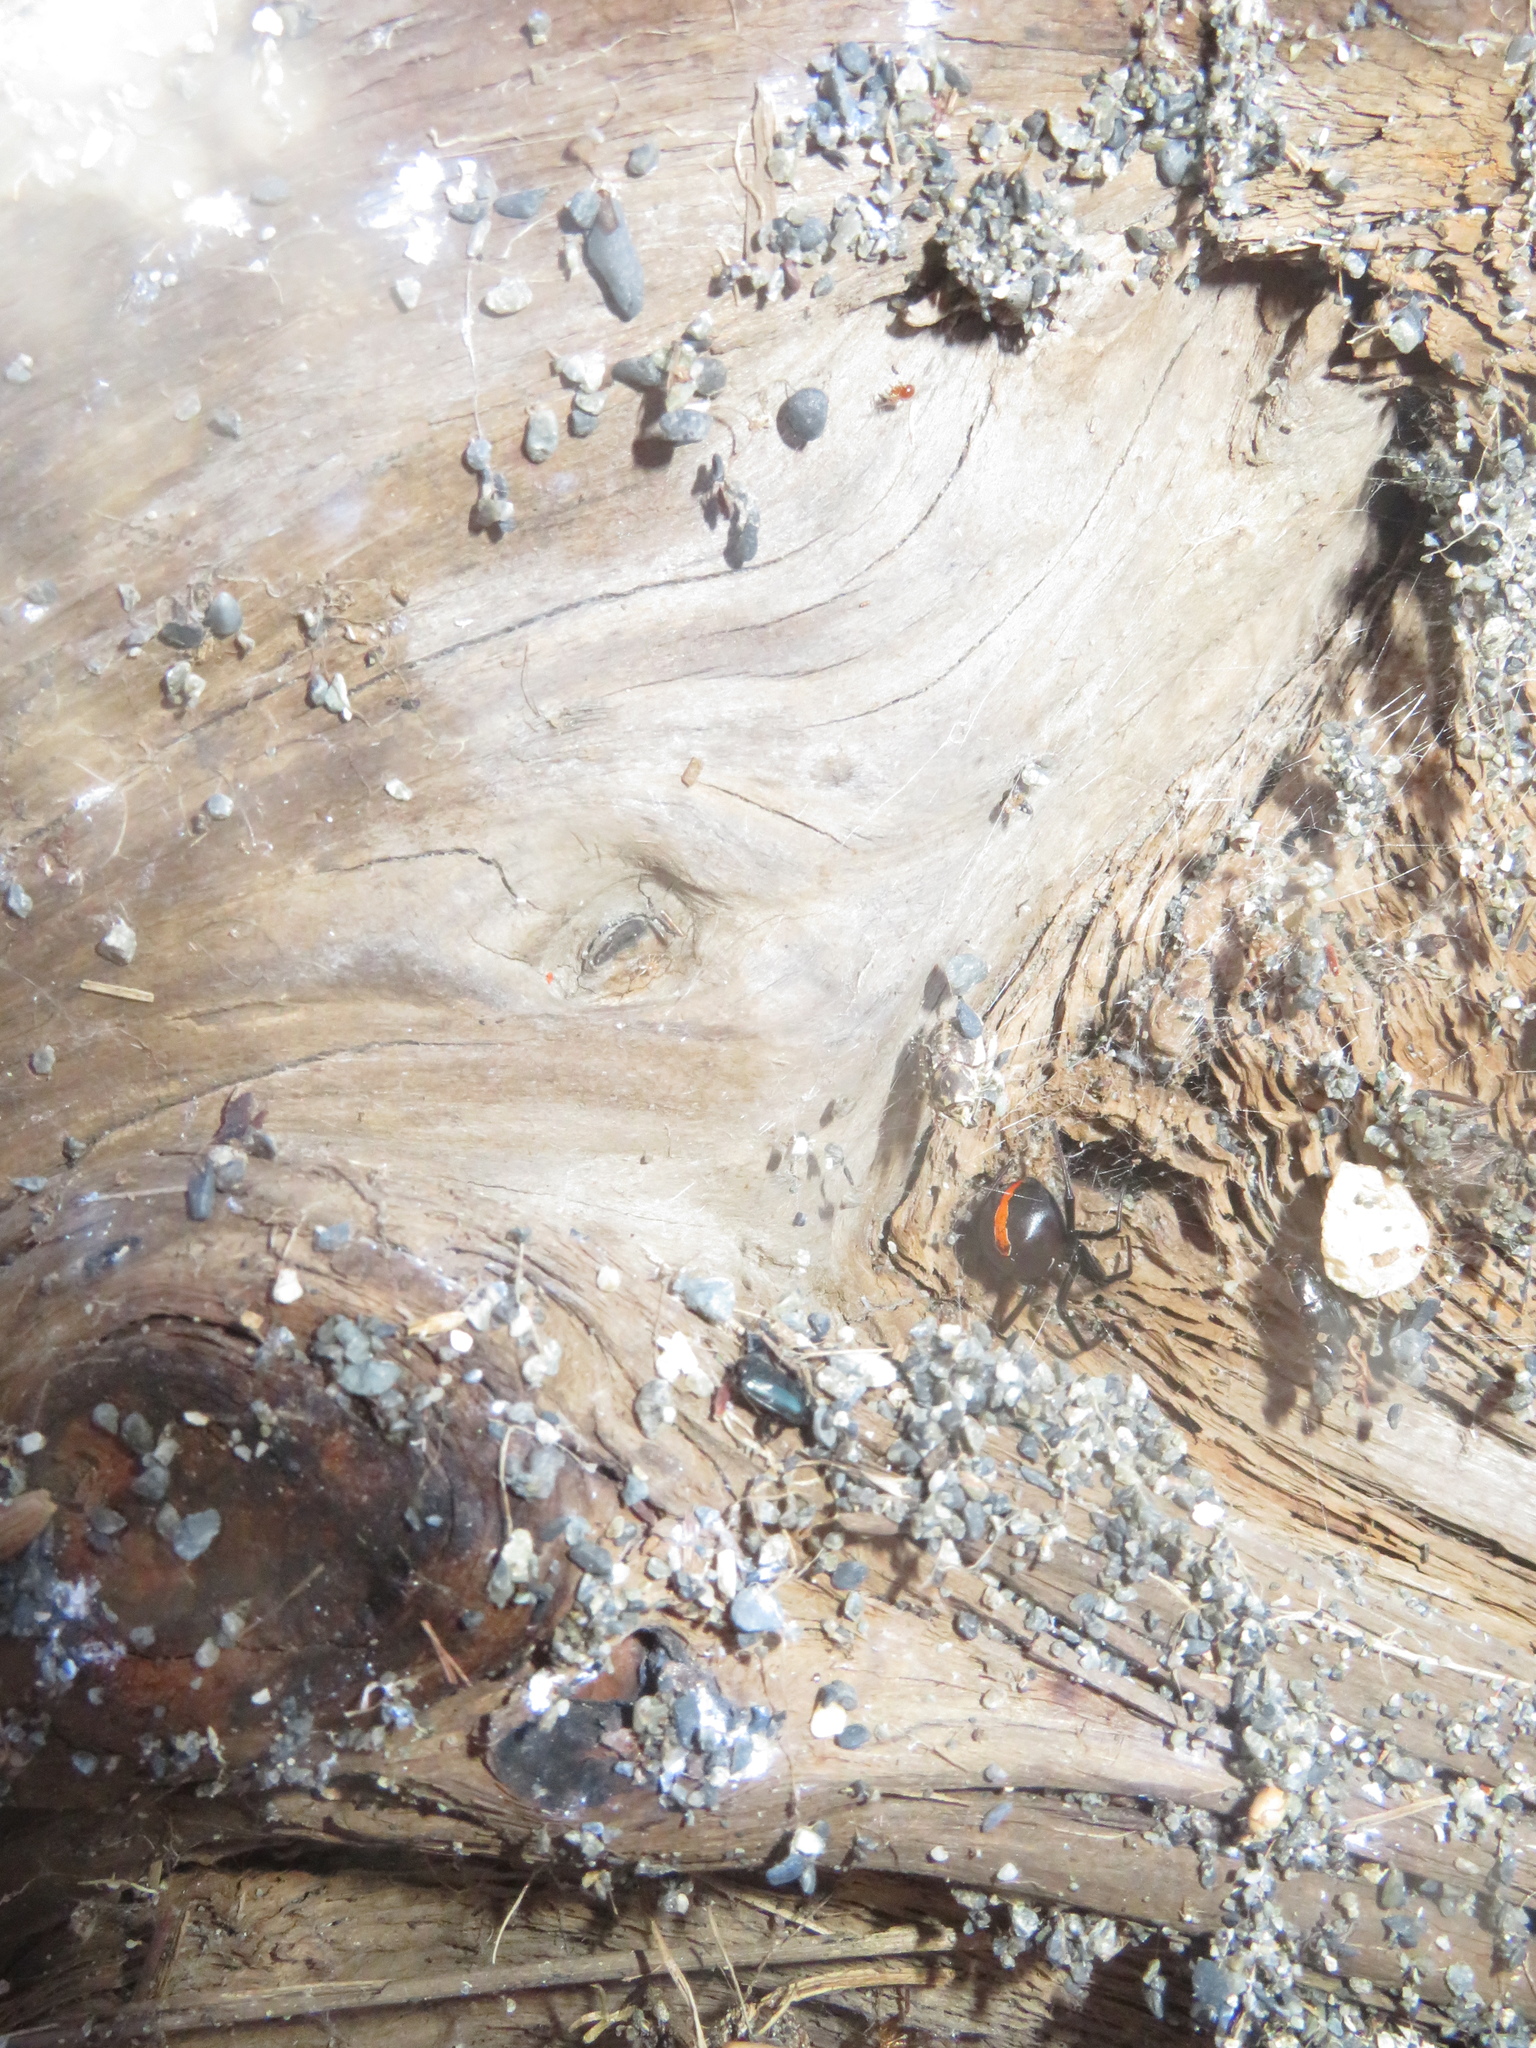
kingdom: Animalia
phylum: Arthropoda
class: Arachnida
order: Araneae
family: Theridiidae
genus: Latrodectus
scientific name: Latrodectus katipo
